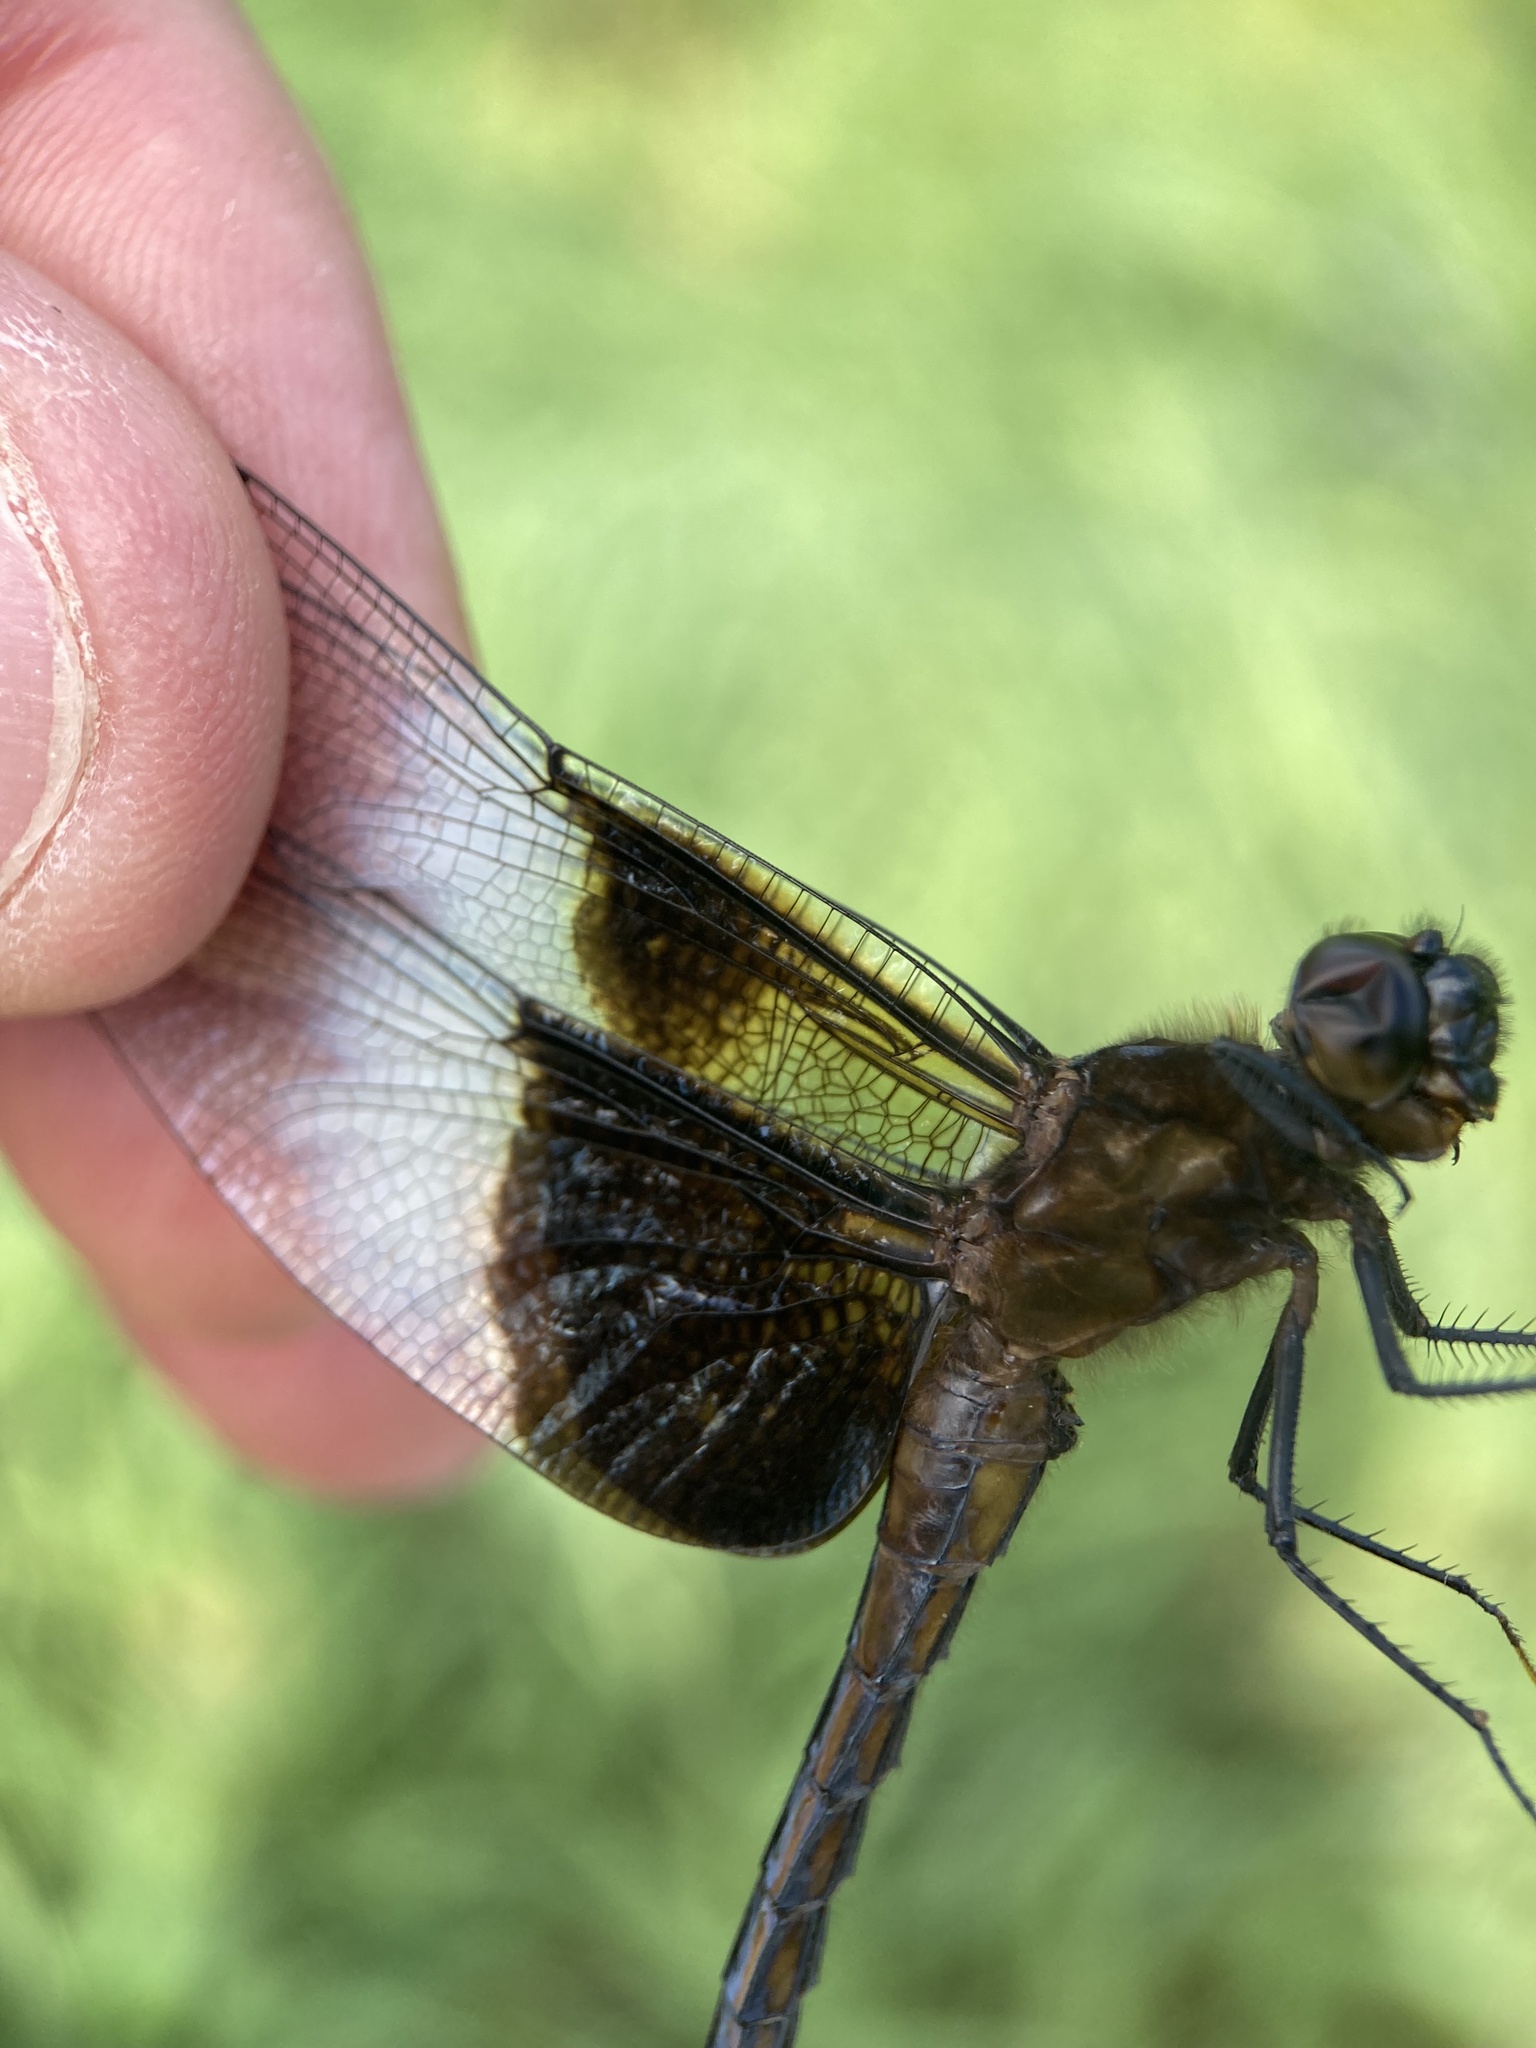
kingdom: Animalia
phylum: Arthropoda
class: Insecta
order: Odonata
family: Libellulidae
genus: Libellula
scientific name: Libellula luctuosa
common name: Widow skimmer
